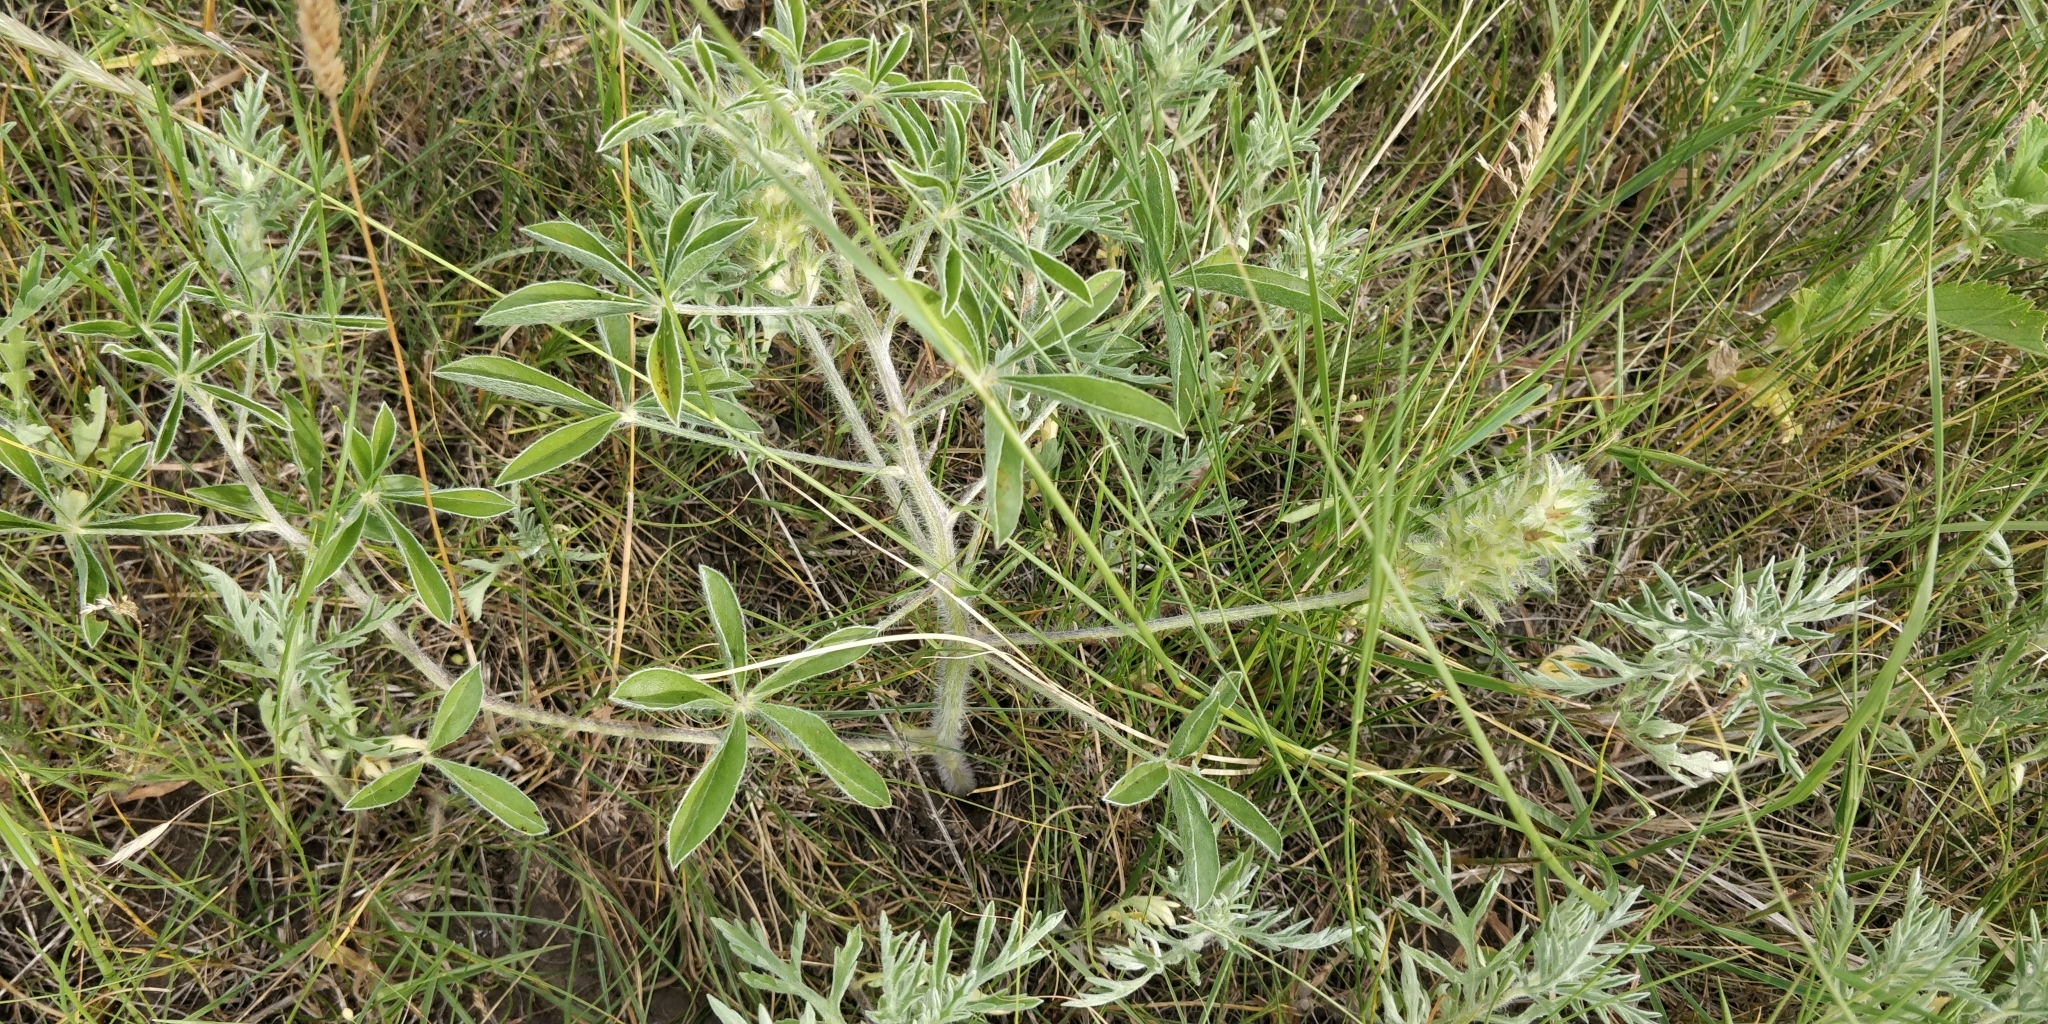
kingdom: Plantae
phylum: Tracheophyta
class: Magnoliopsida
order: Fabales
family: Fabaceae
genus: Pediomelum
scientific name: Pediomelum esculentum
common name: Indian-turnip
